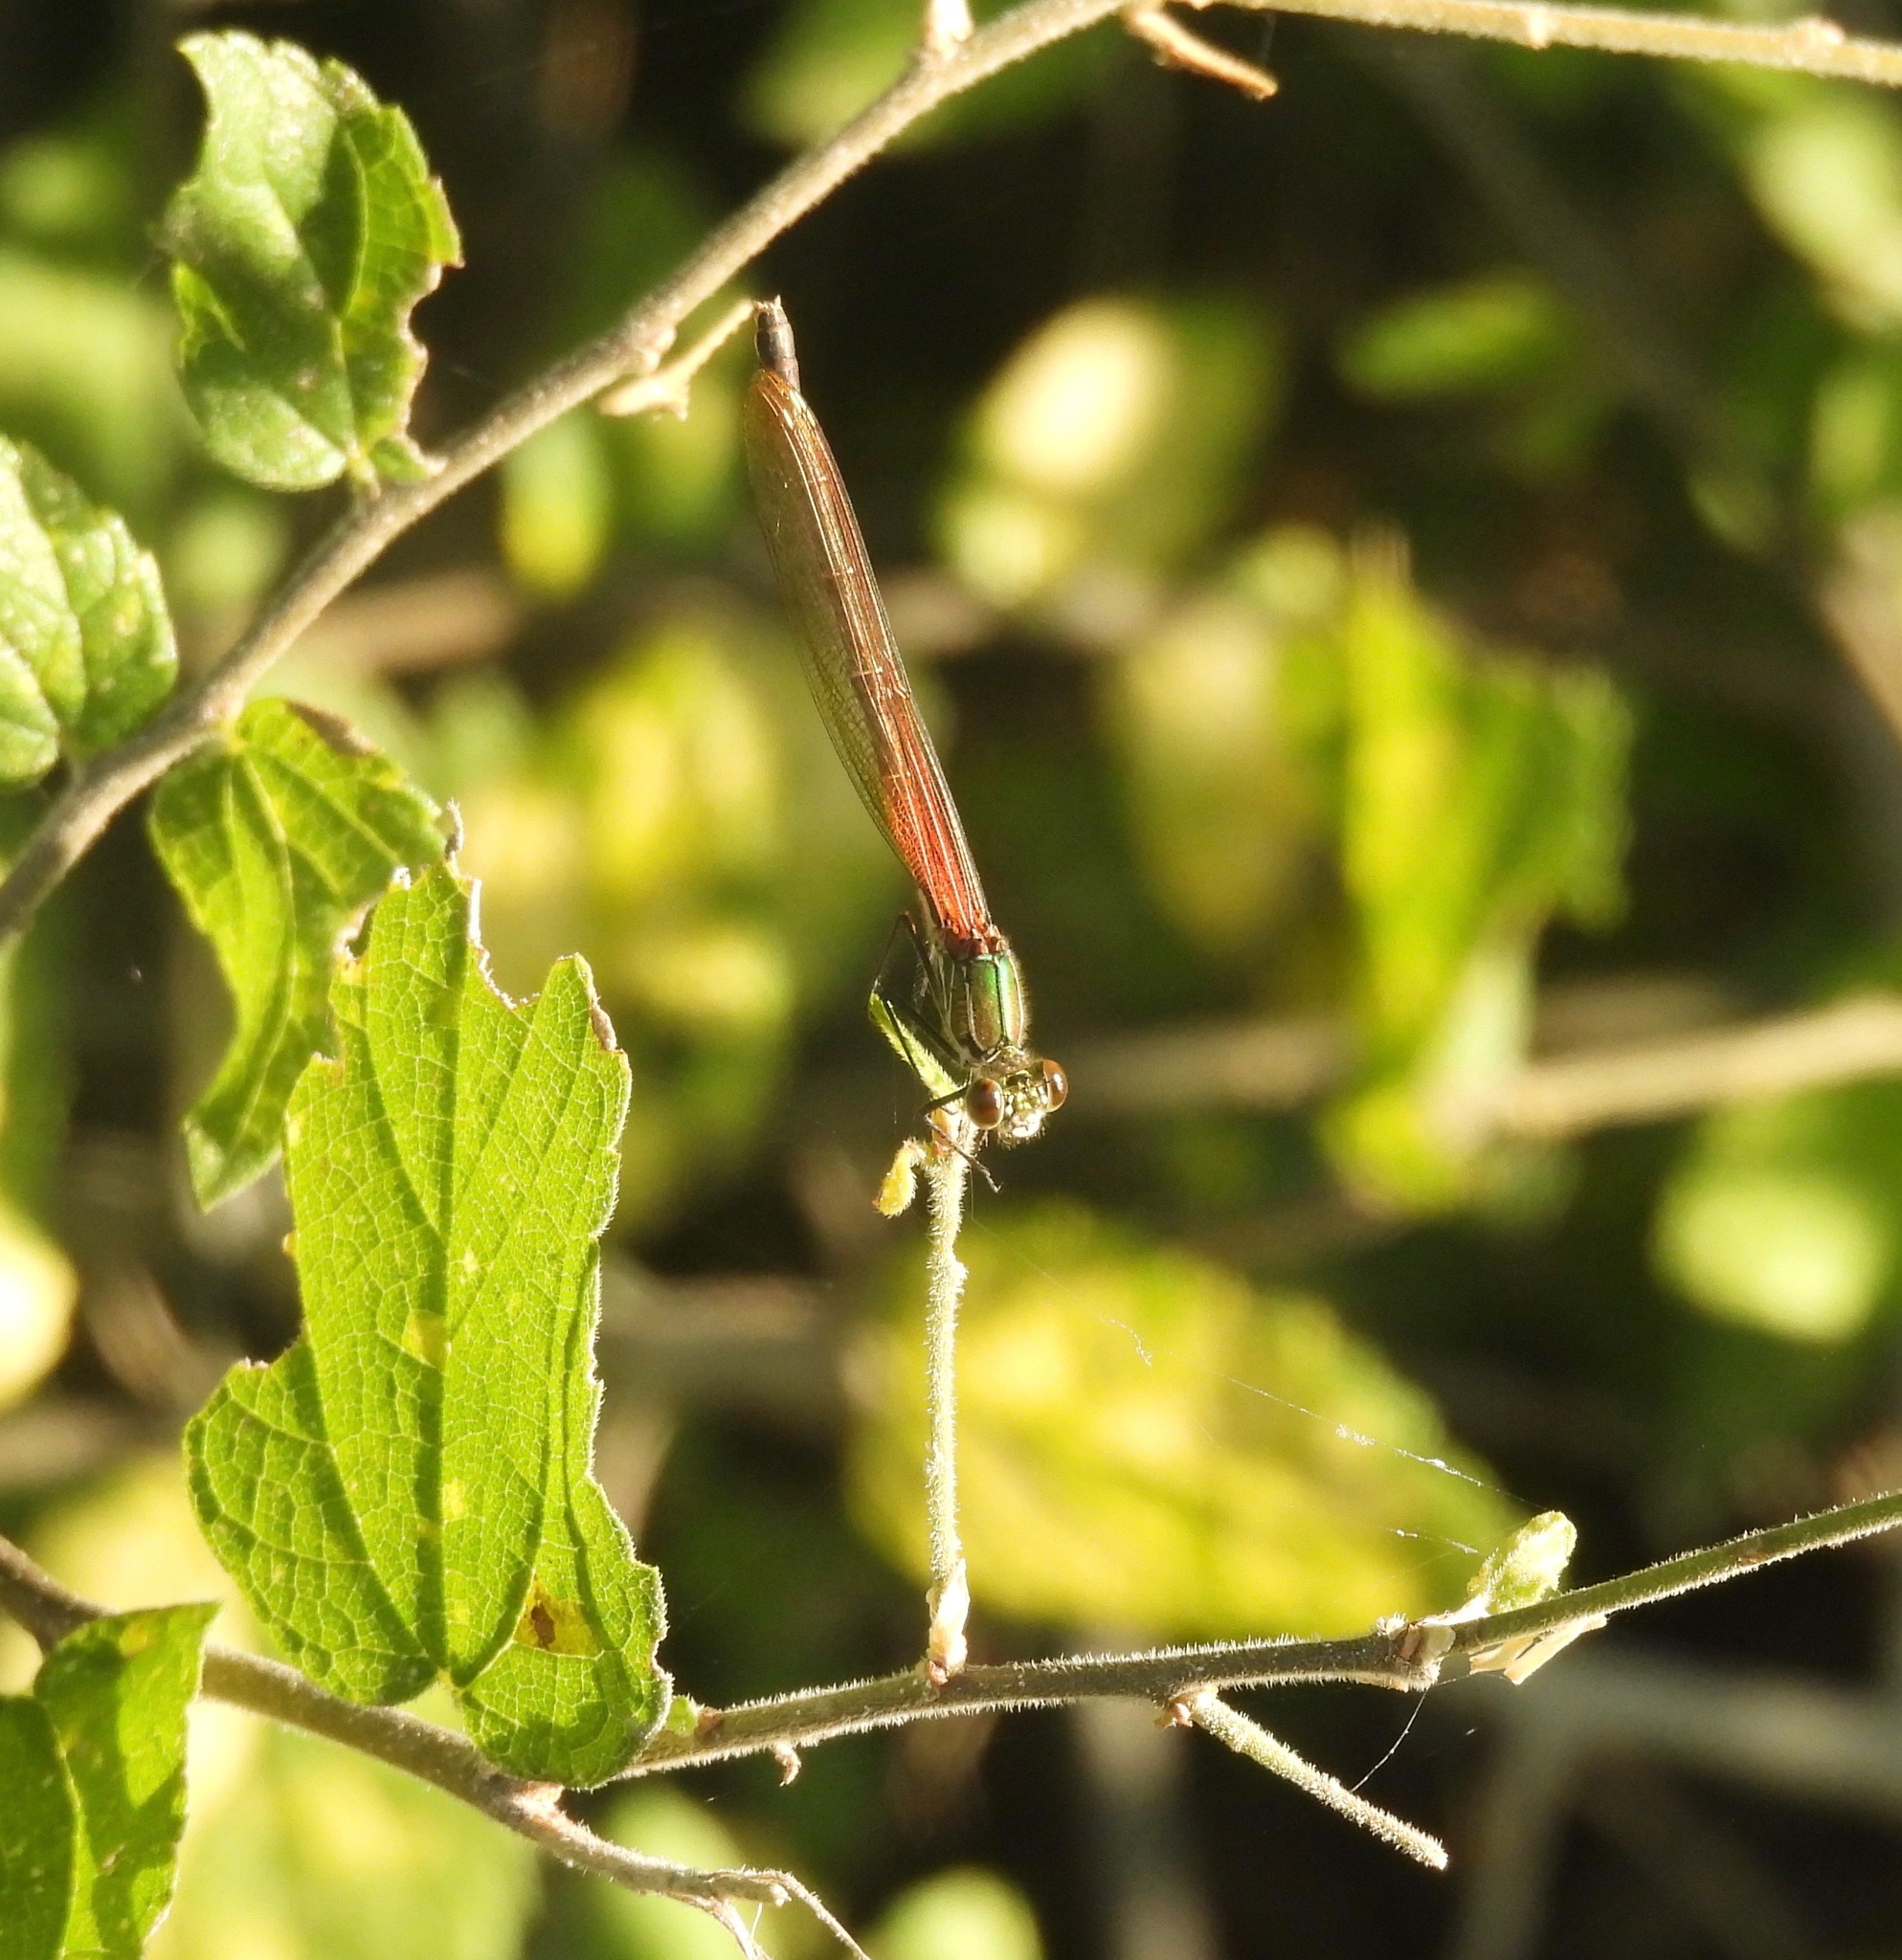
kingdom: Animalia
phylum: Arthropoda
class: Insecta
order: Odonata
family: Calopterygidae
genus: Hetaerina
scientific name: Hetaerina americana
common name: American rubyspot
